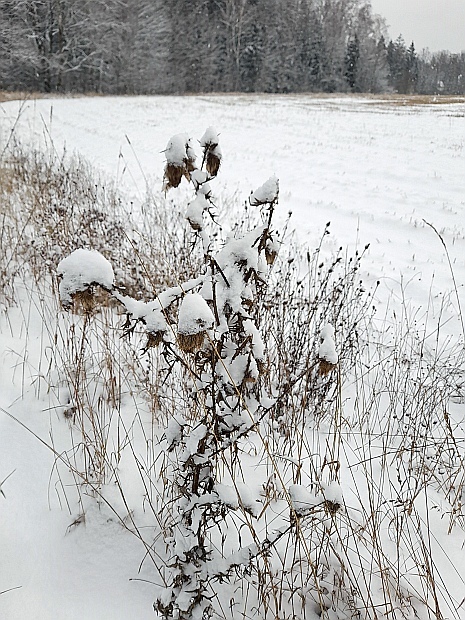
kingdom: Plantae
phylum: Tracheophyta
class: Magnoliopsida
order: Asterales
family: Asteraceae
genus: Cirsium
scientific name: Cirsium vulgare
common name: Bull thistle
